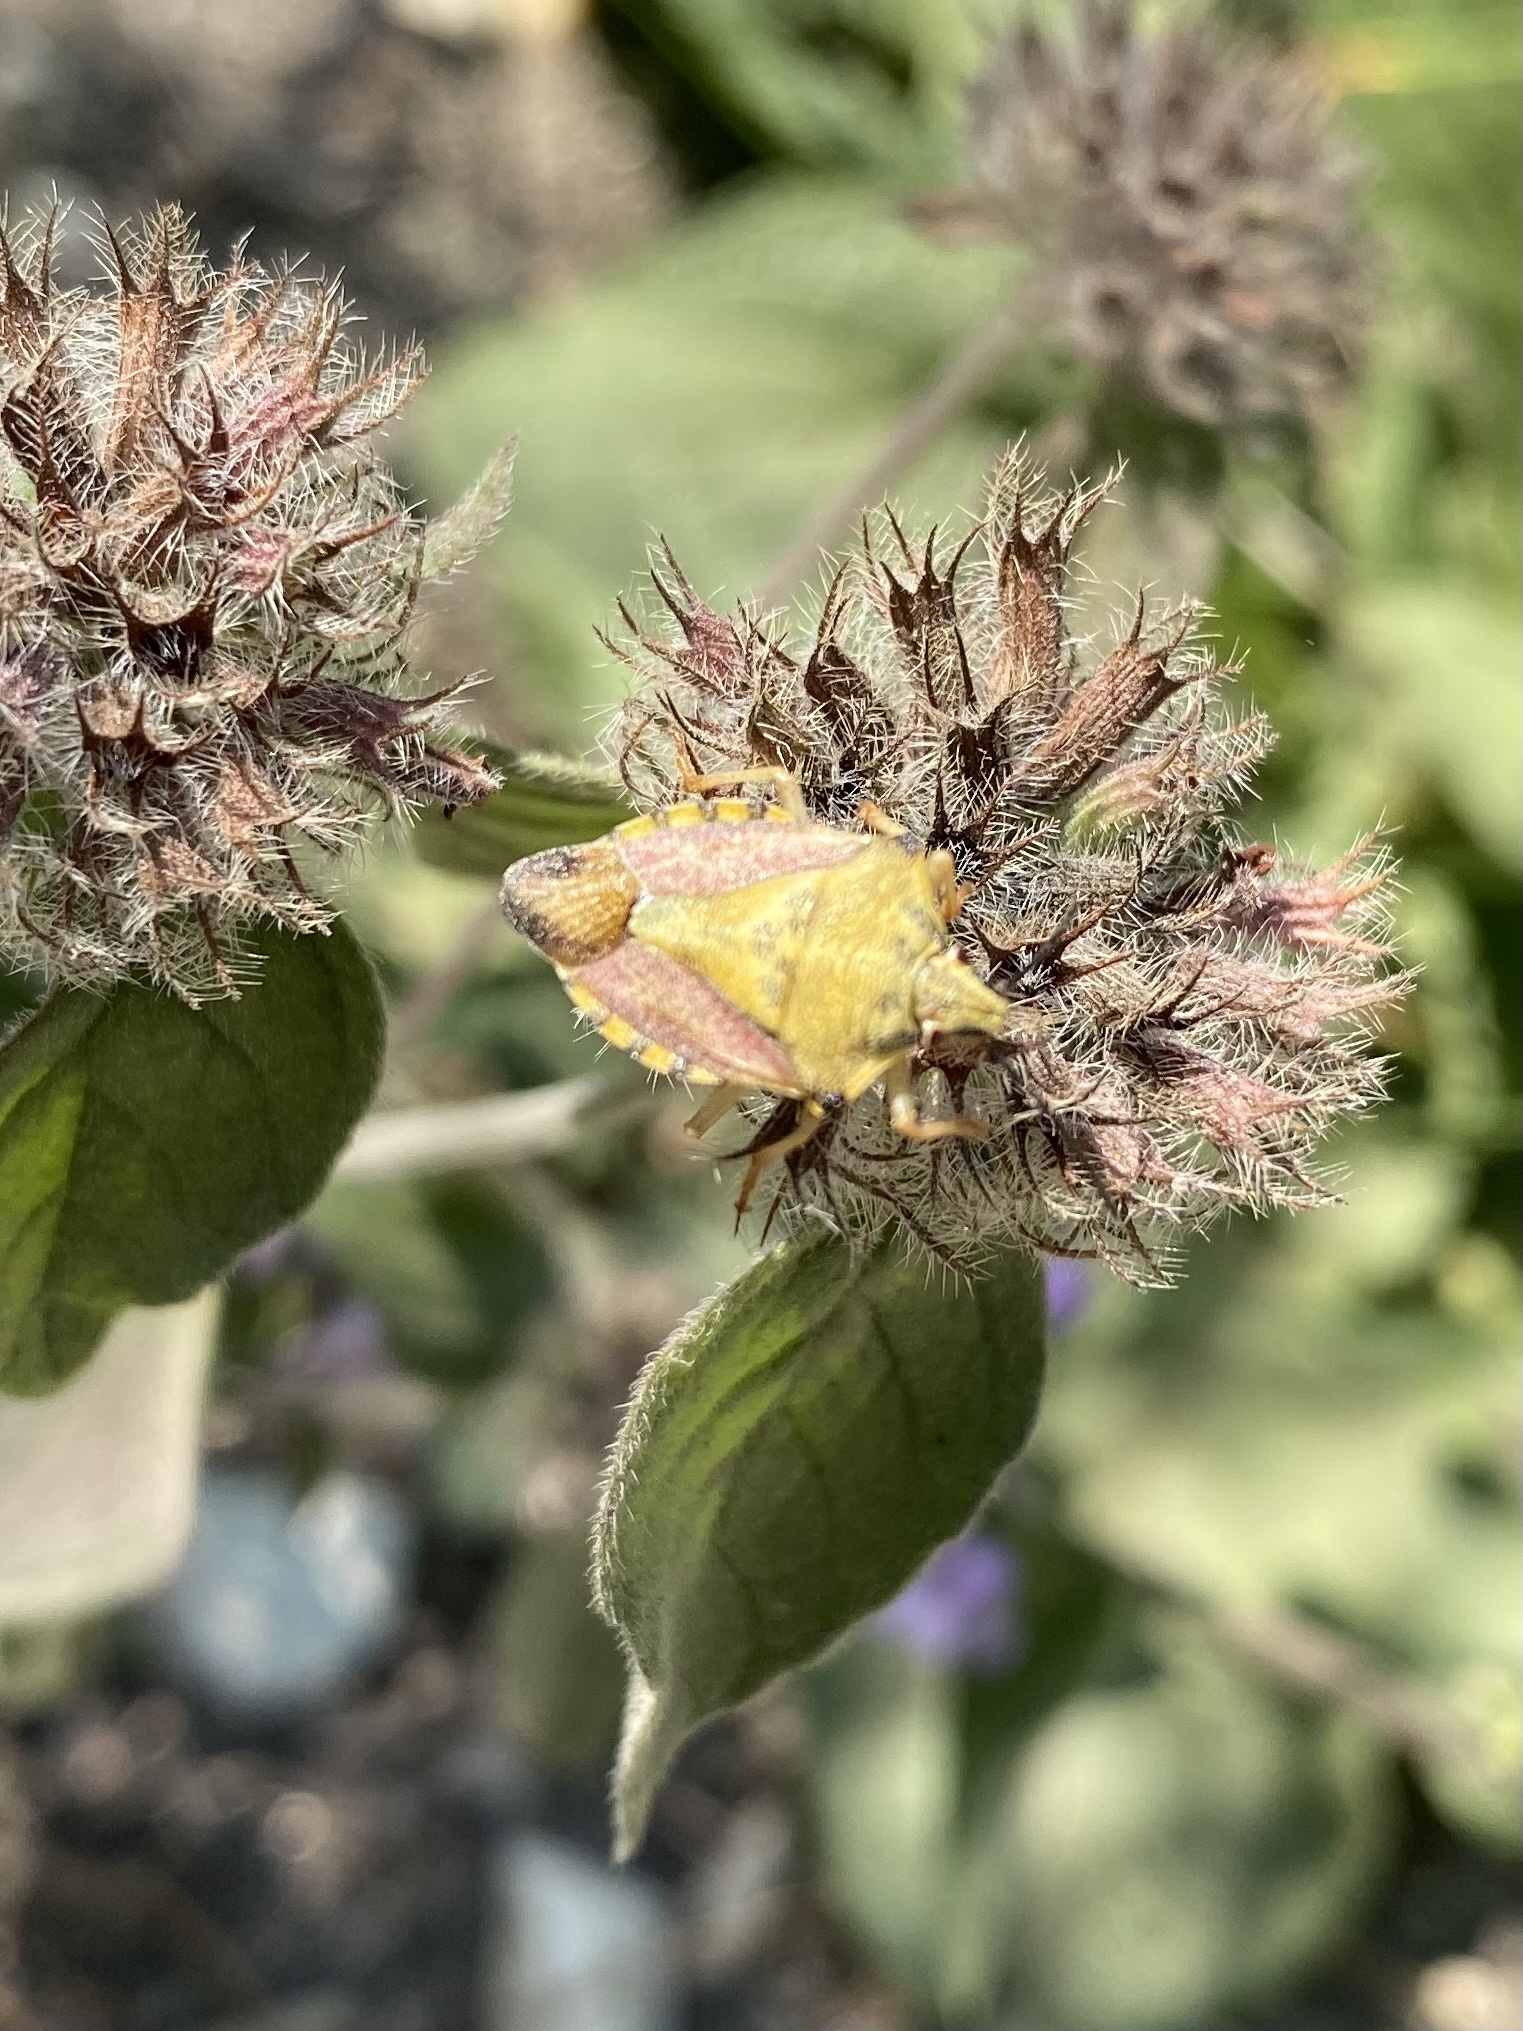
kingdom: Animalia
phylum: Arthropoda
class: Insecta
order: Hemiptera
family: Pentatomidae
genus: Carpocoris
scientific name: Carpocoris purpureipennis
